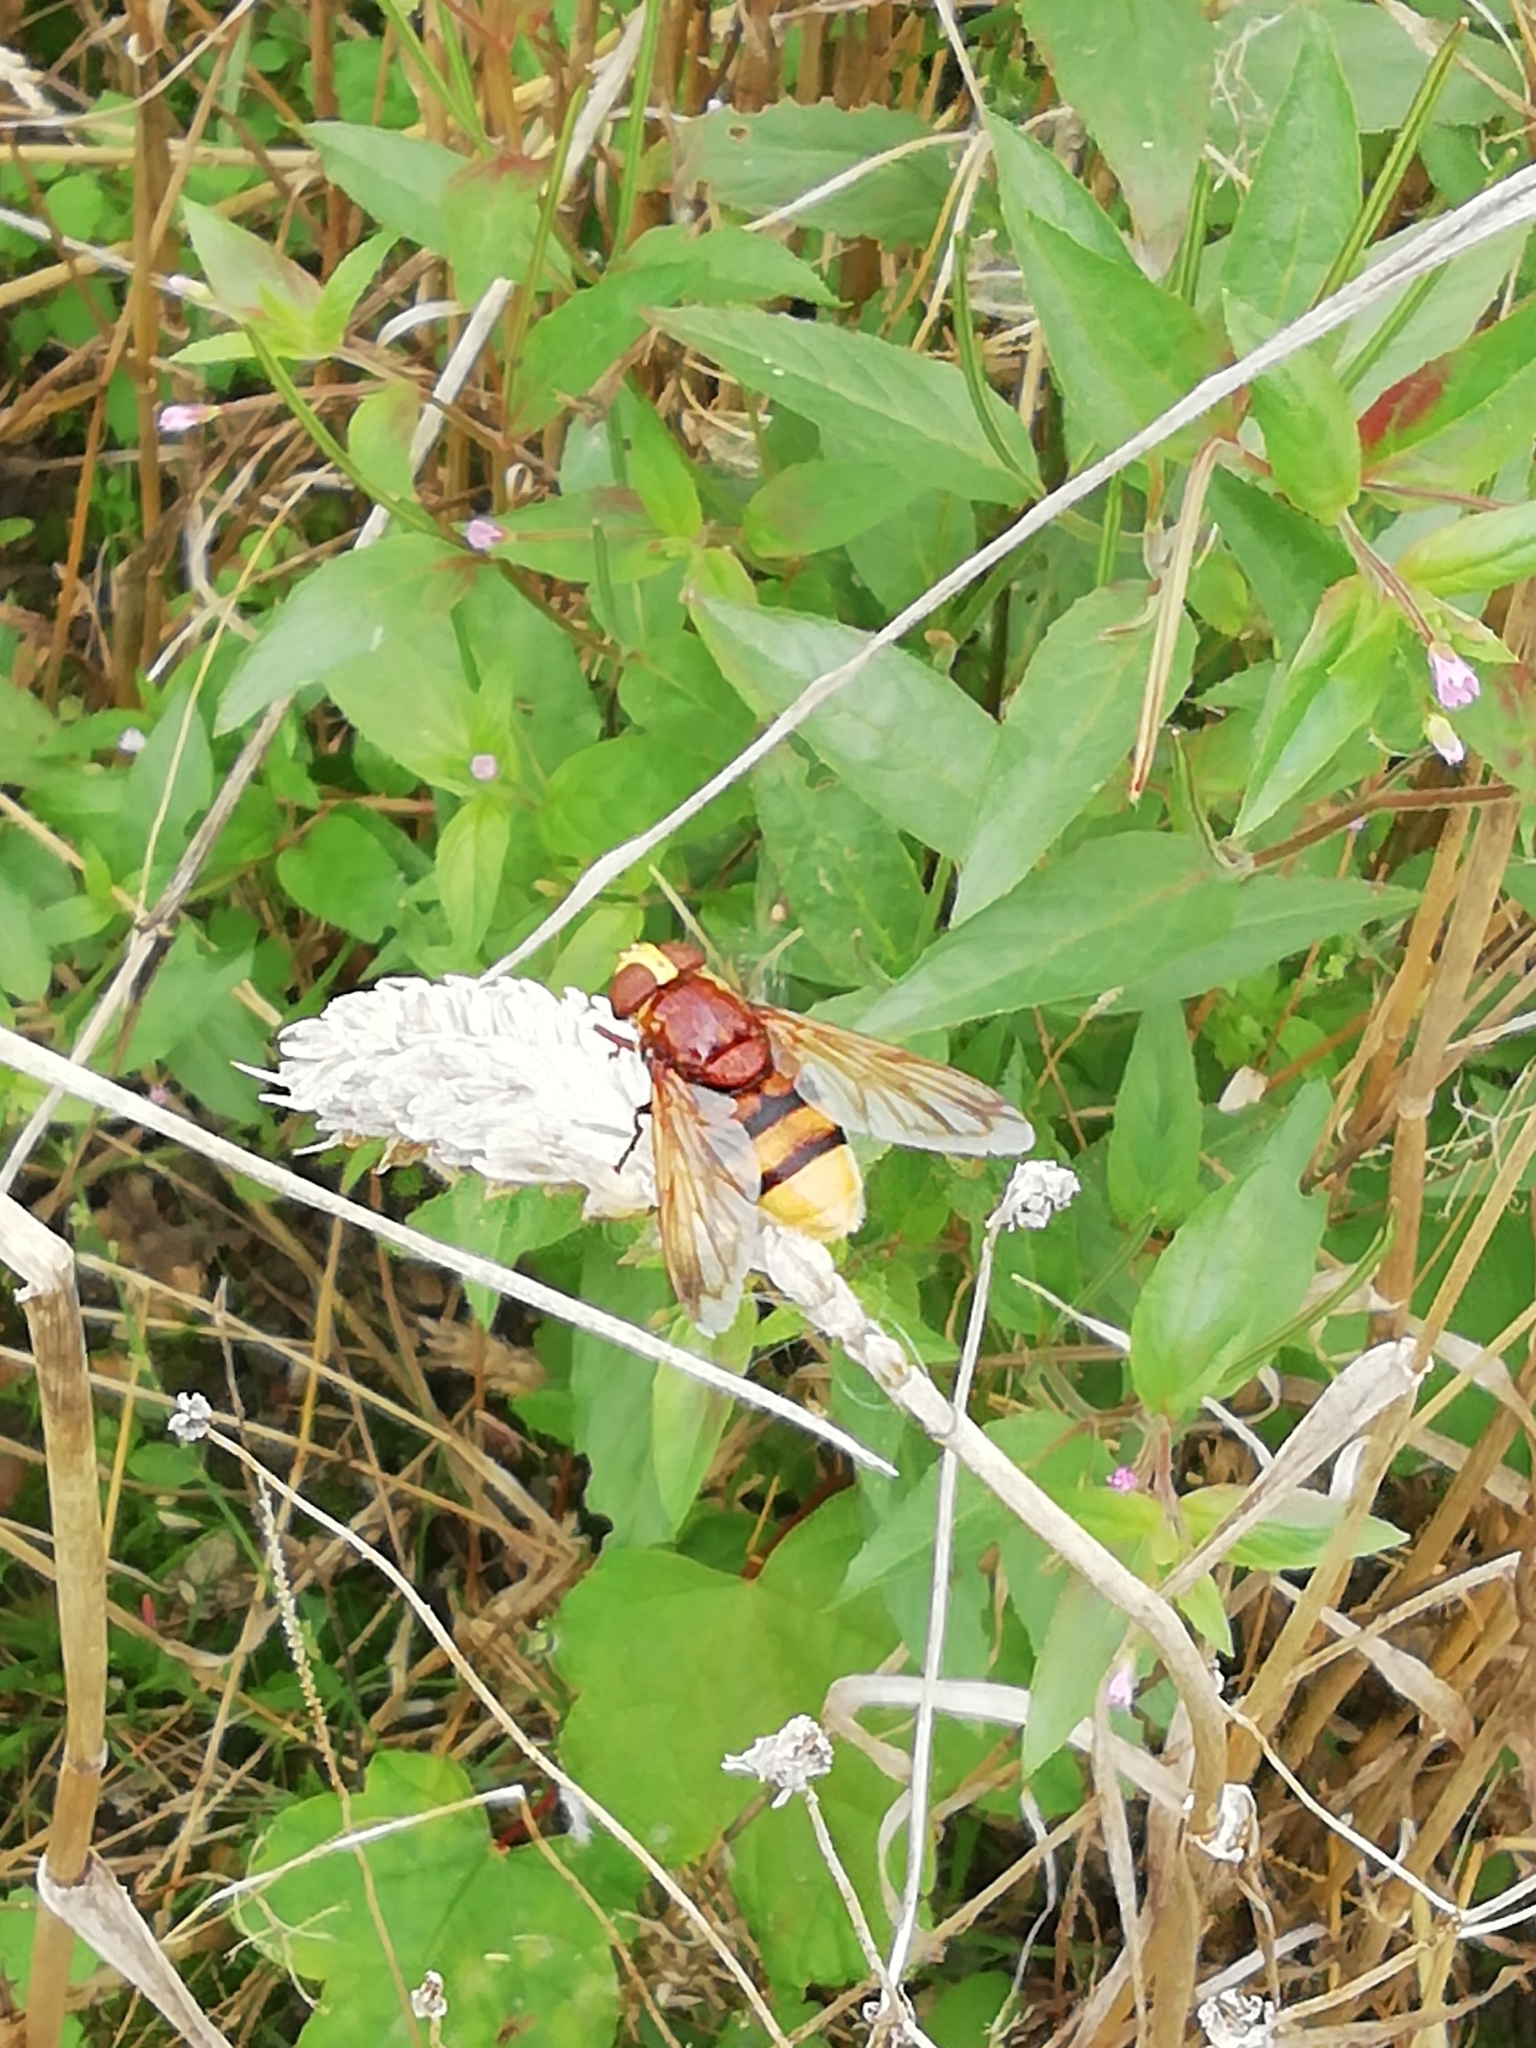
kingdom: Animalia
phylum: Arthropoda
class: Insecta
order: Diptera
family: Syrphidae
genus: Volucella
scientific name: Volucella zonaria
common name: Hornet hoverfly
